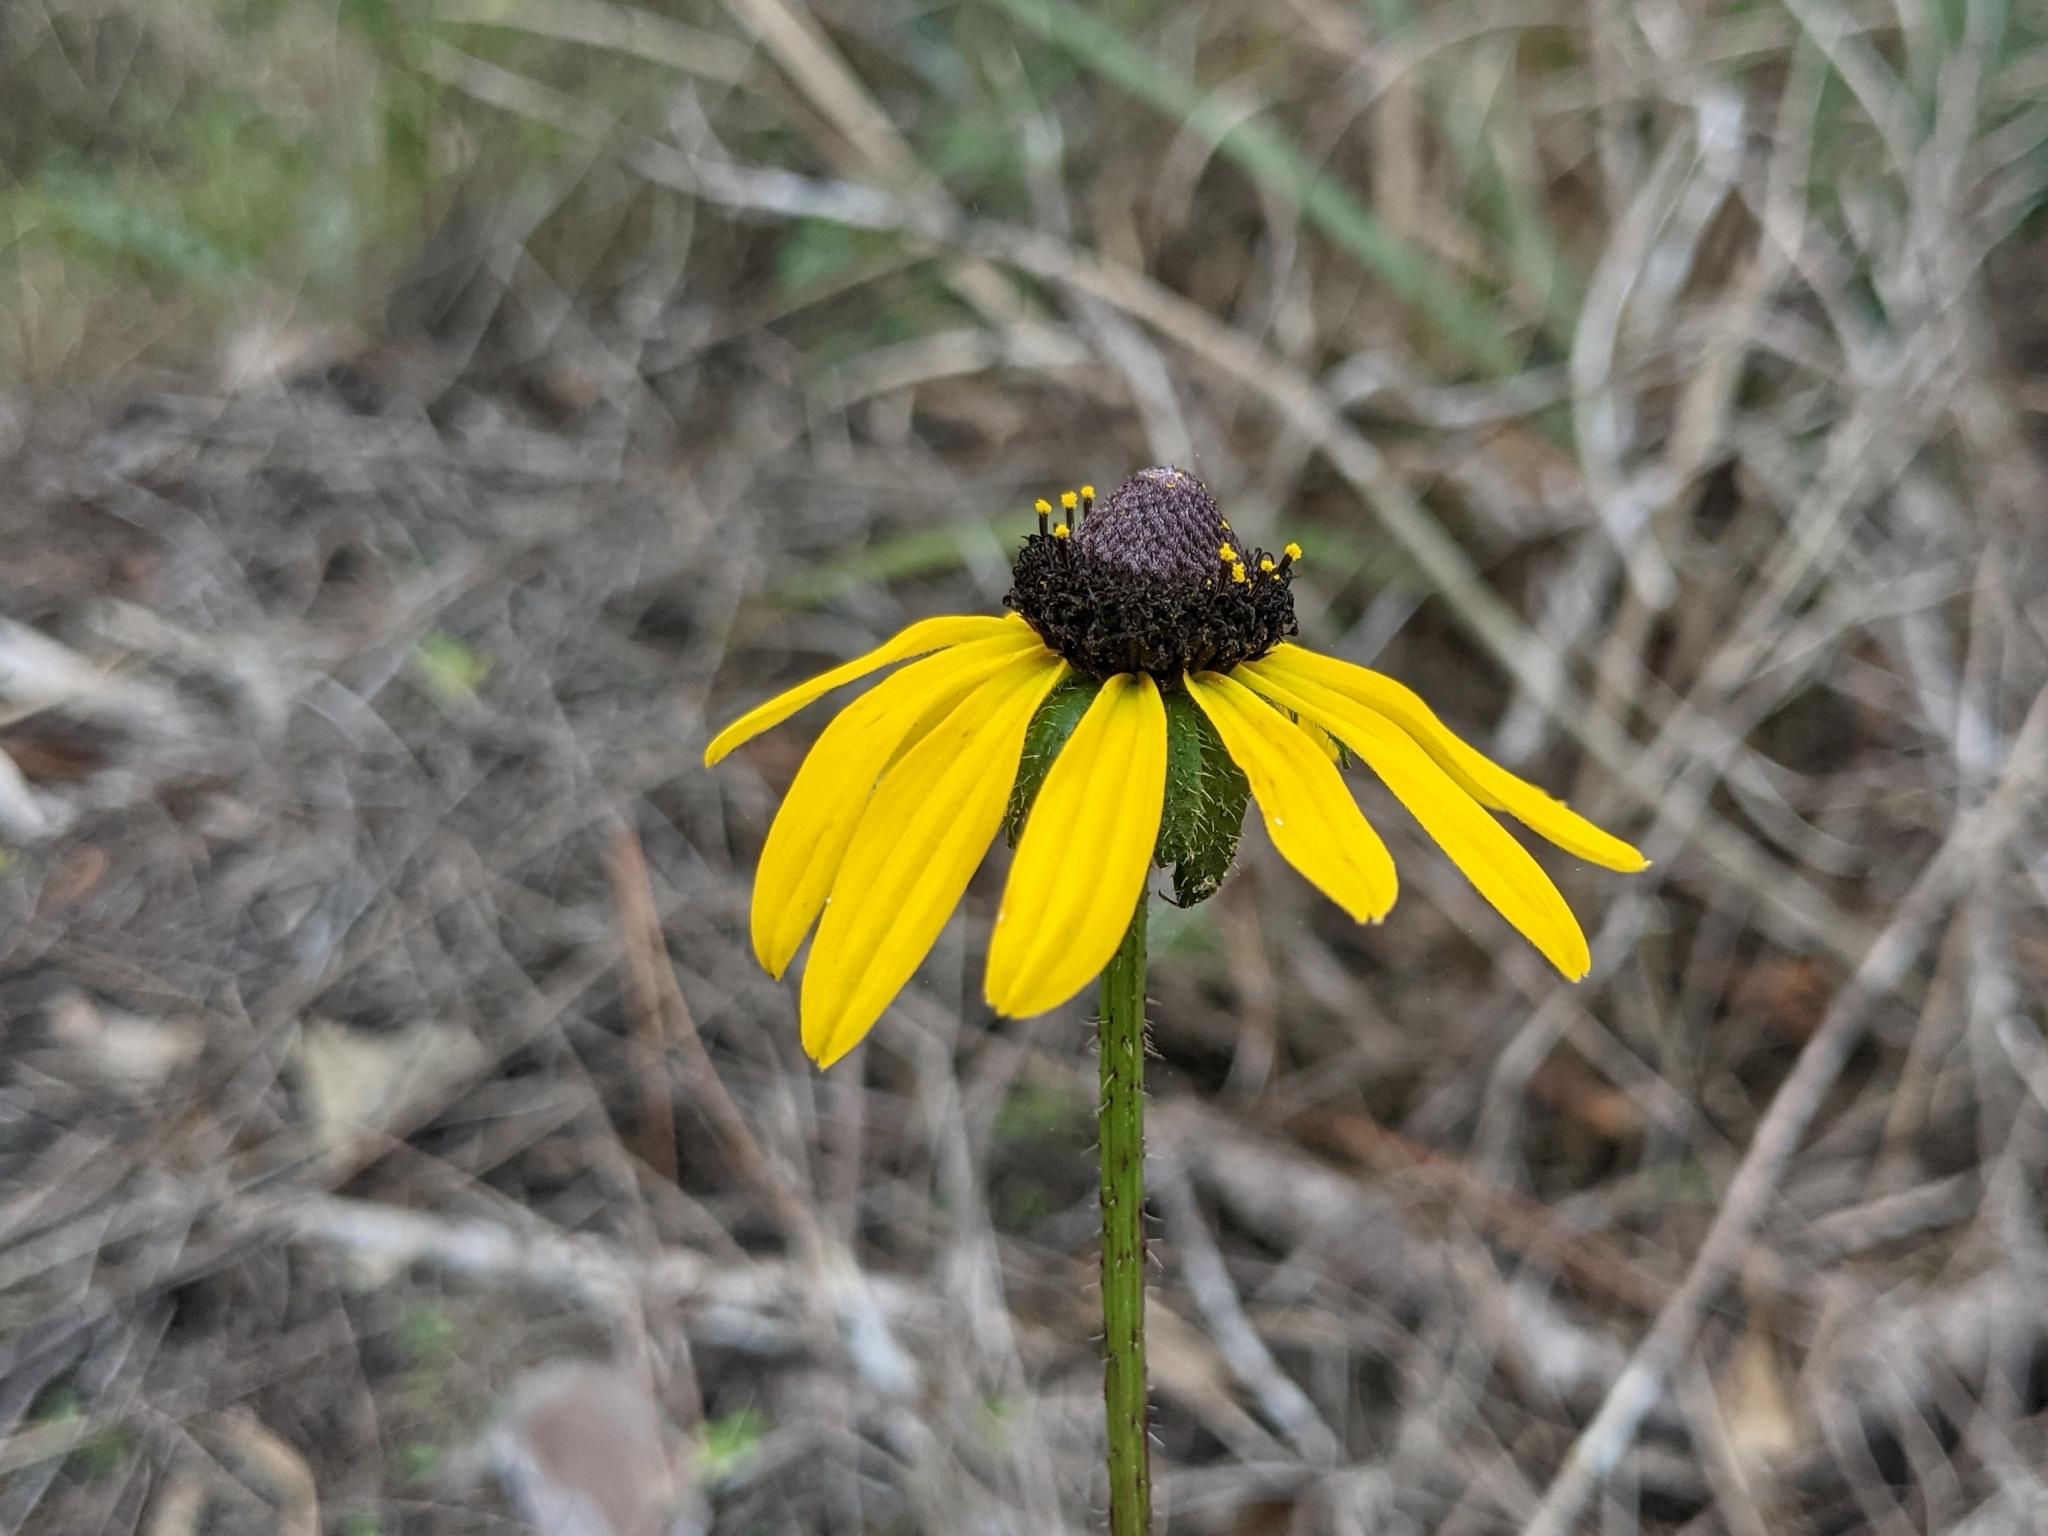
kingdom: Plantae
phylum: Tracheophyta
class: Magnoliopsida
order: Asterales
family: Asteraceae
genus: Rudbeckia
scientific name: Rudbeckia hirta
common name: Black-eyed-susan
